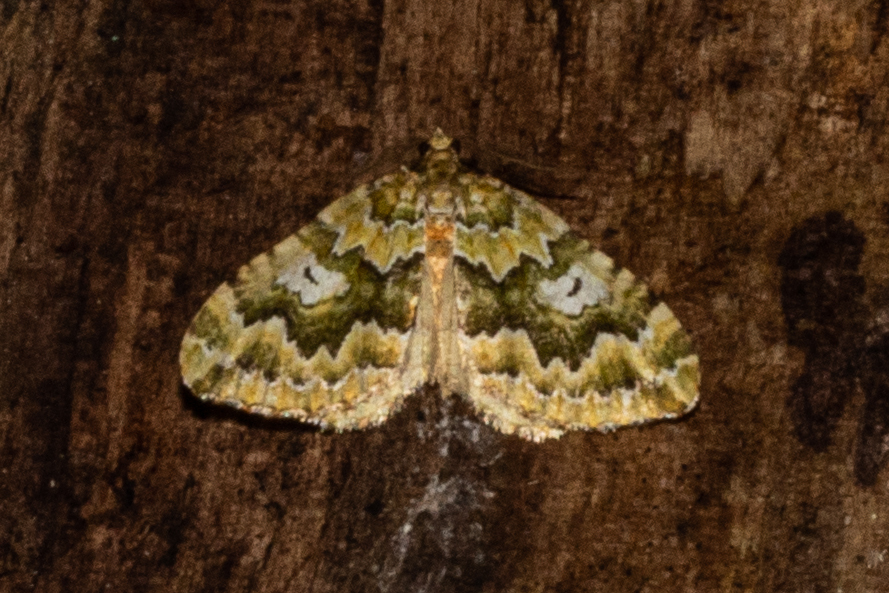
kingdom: Animalia
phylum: Arthropoda
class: Insecta
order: Lepidoptera
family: Geometridae
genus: Asaphodes
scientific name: Asaphodes beata
